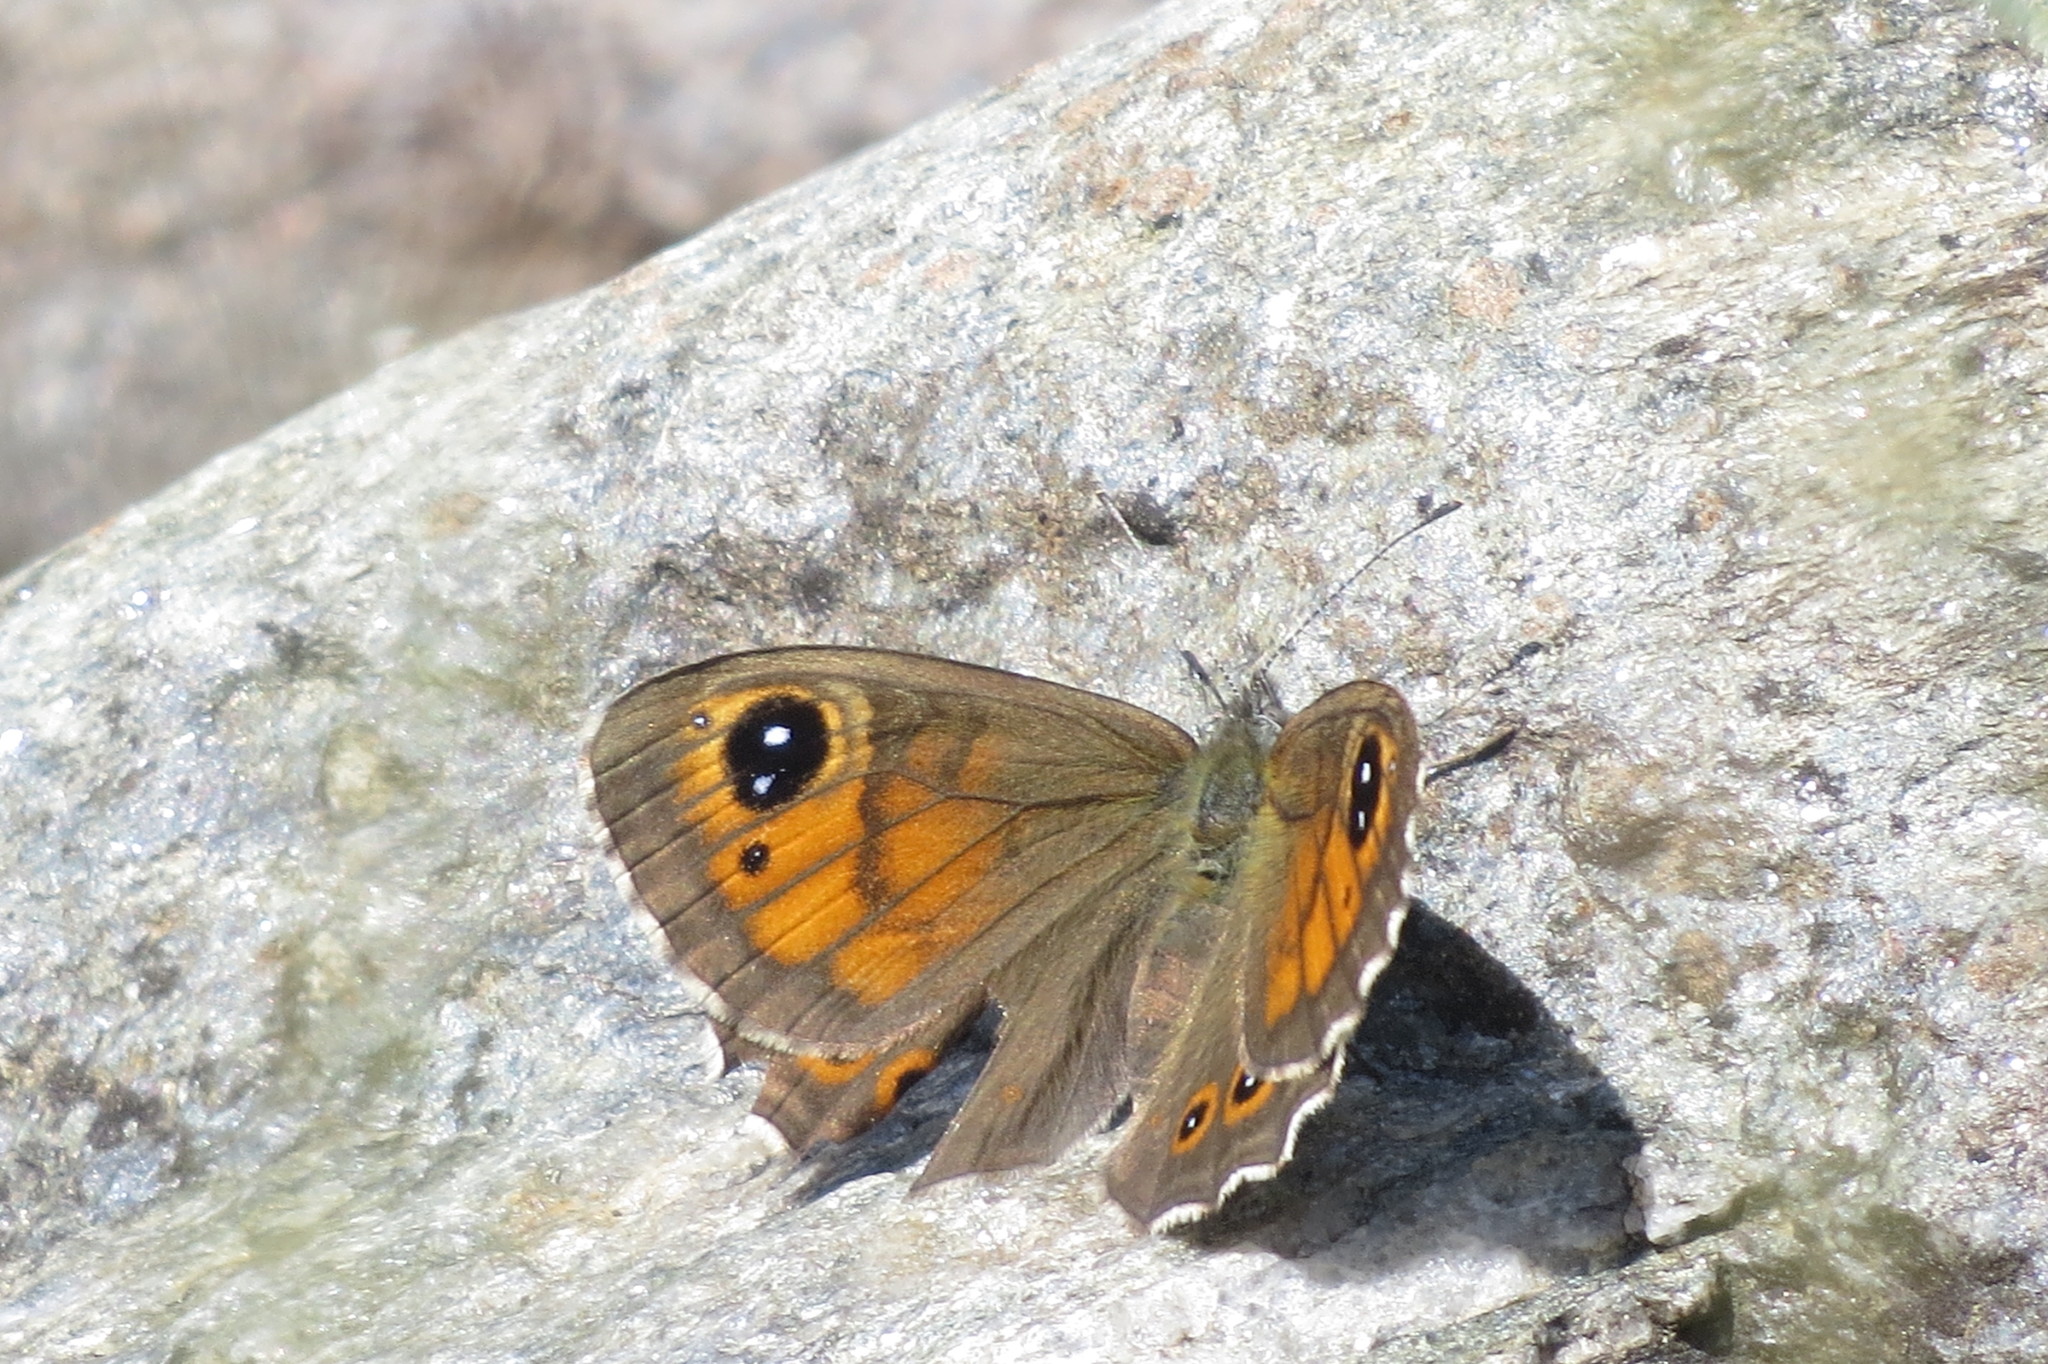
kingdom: Animalia
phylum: Arthropoda
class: Insecta
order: Lepidoptera
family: Nymphalidae
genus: Pararge
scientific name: Pararge Lasiommata maera
